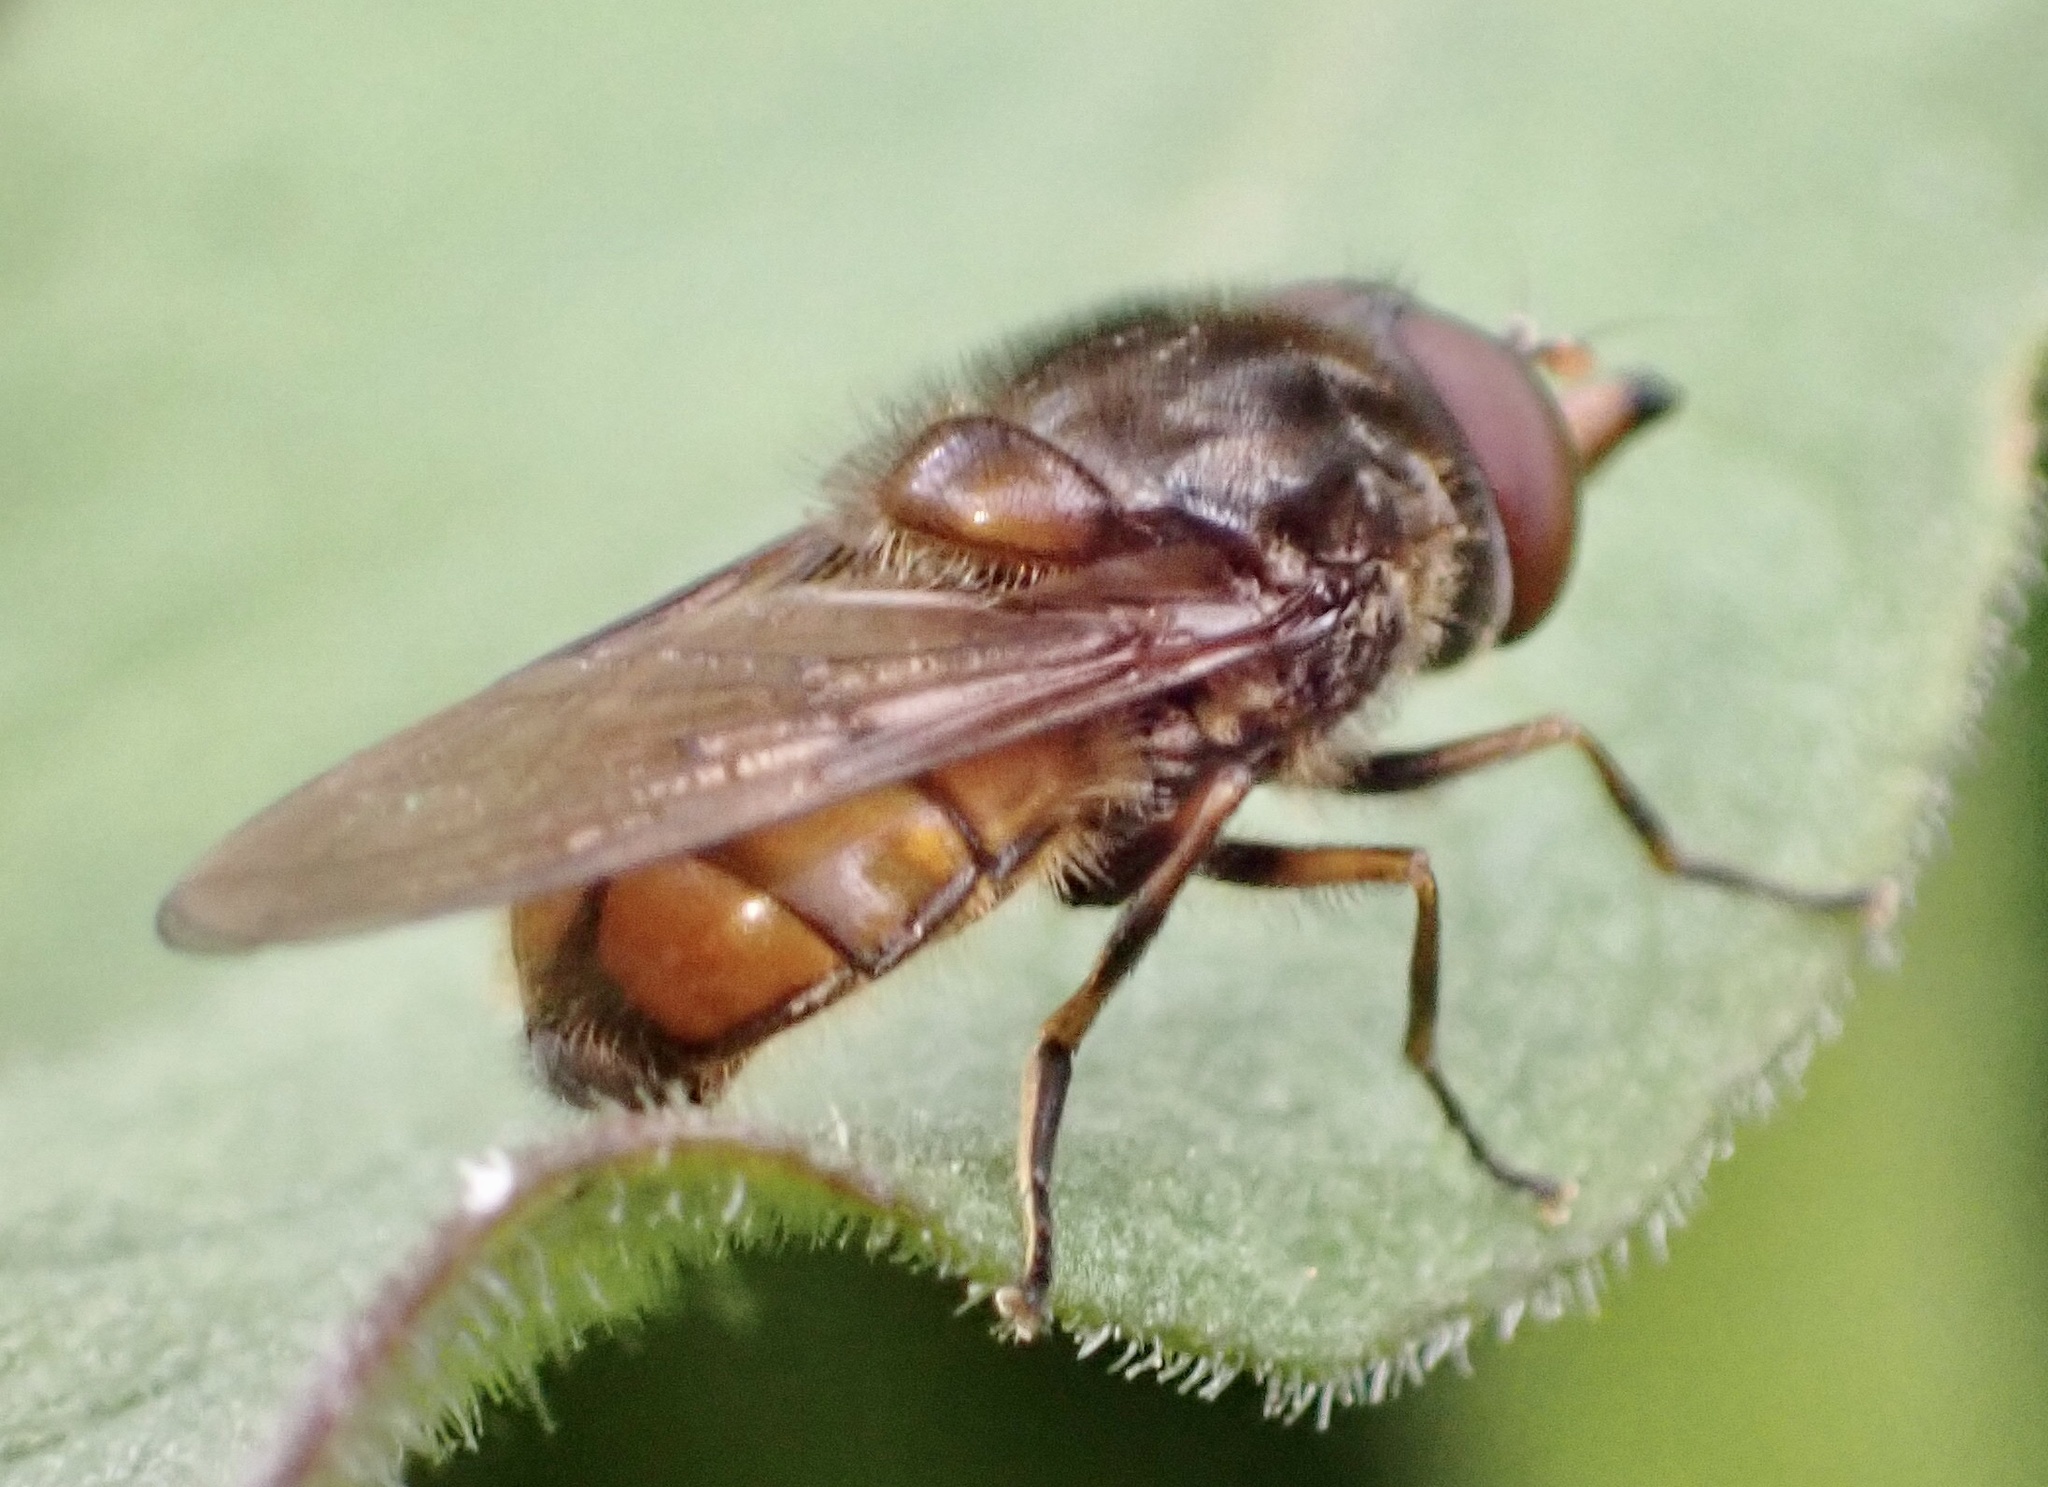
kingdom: Animalia
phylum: Arthropoda
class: Insecta
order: Diptera
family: Syrphidae
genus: Rhingia
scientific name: Rhingia campestris
